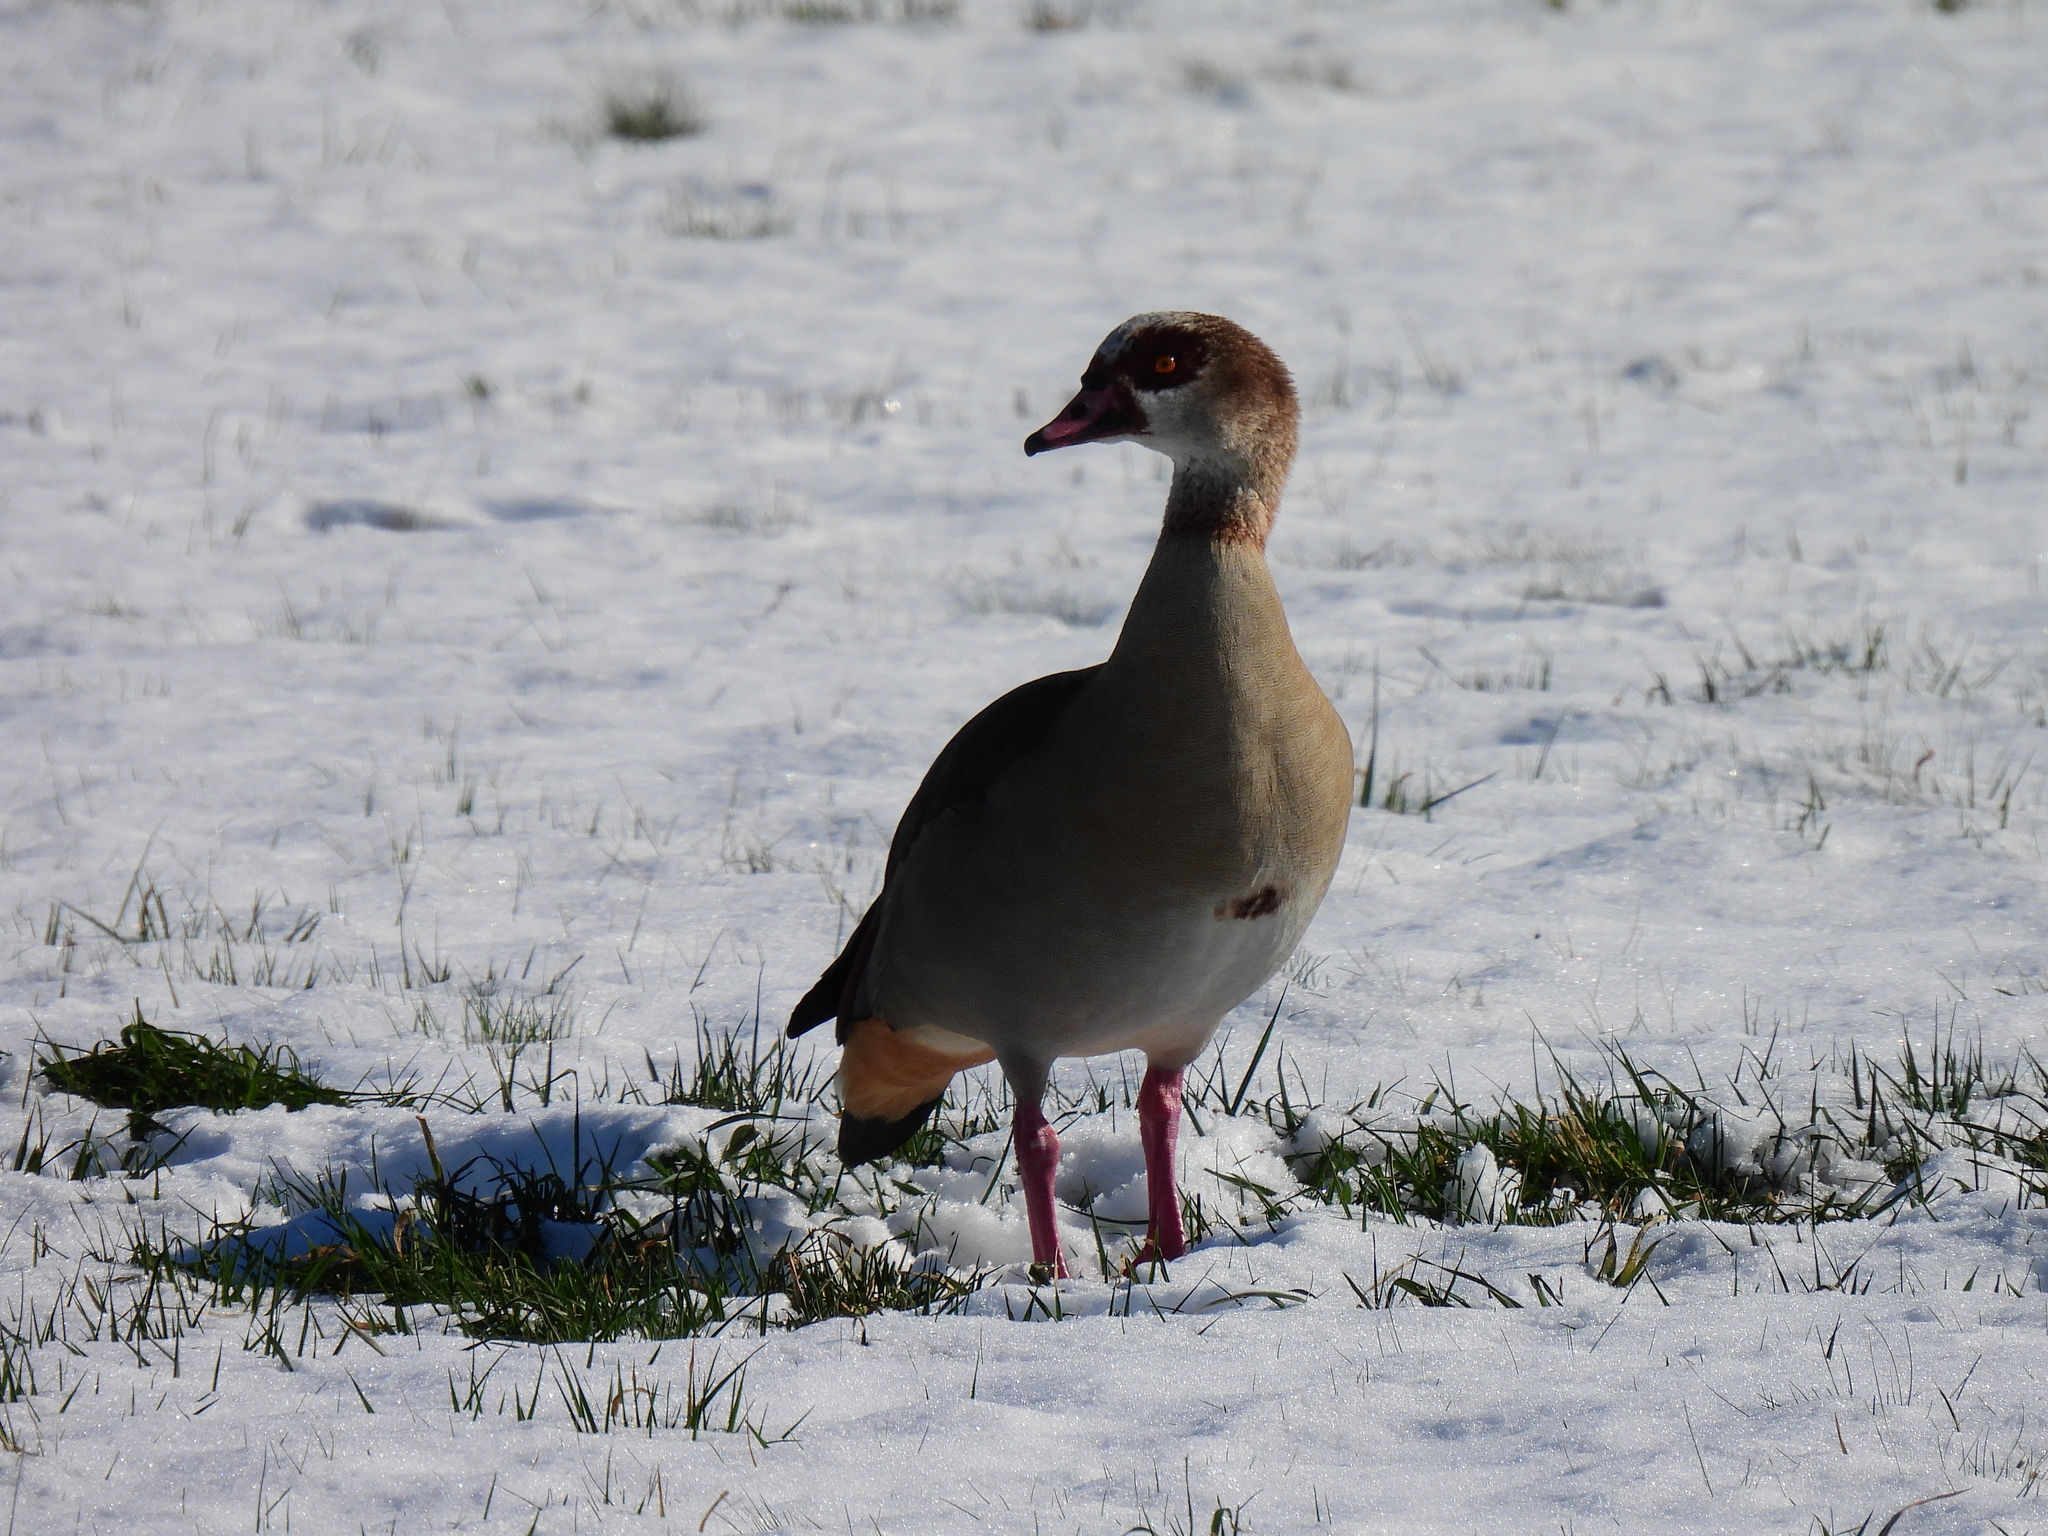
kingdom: Animalia
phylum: Chordata
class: Aves
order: Anseriformes
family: Anatidae
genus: Alopochen
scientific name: Alopochen aegyptiaca
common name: Egyptian goose
